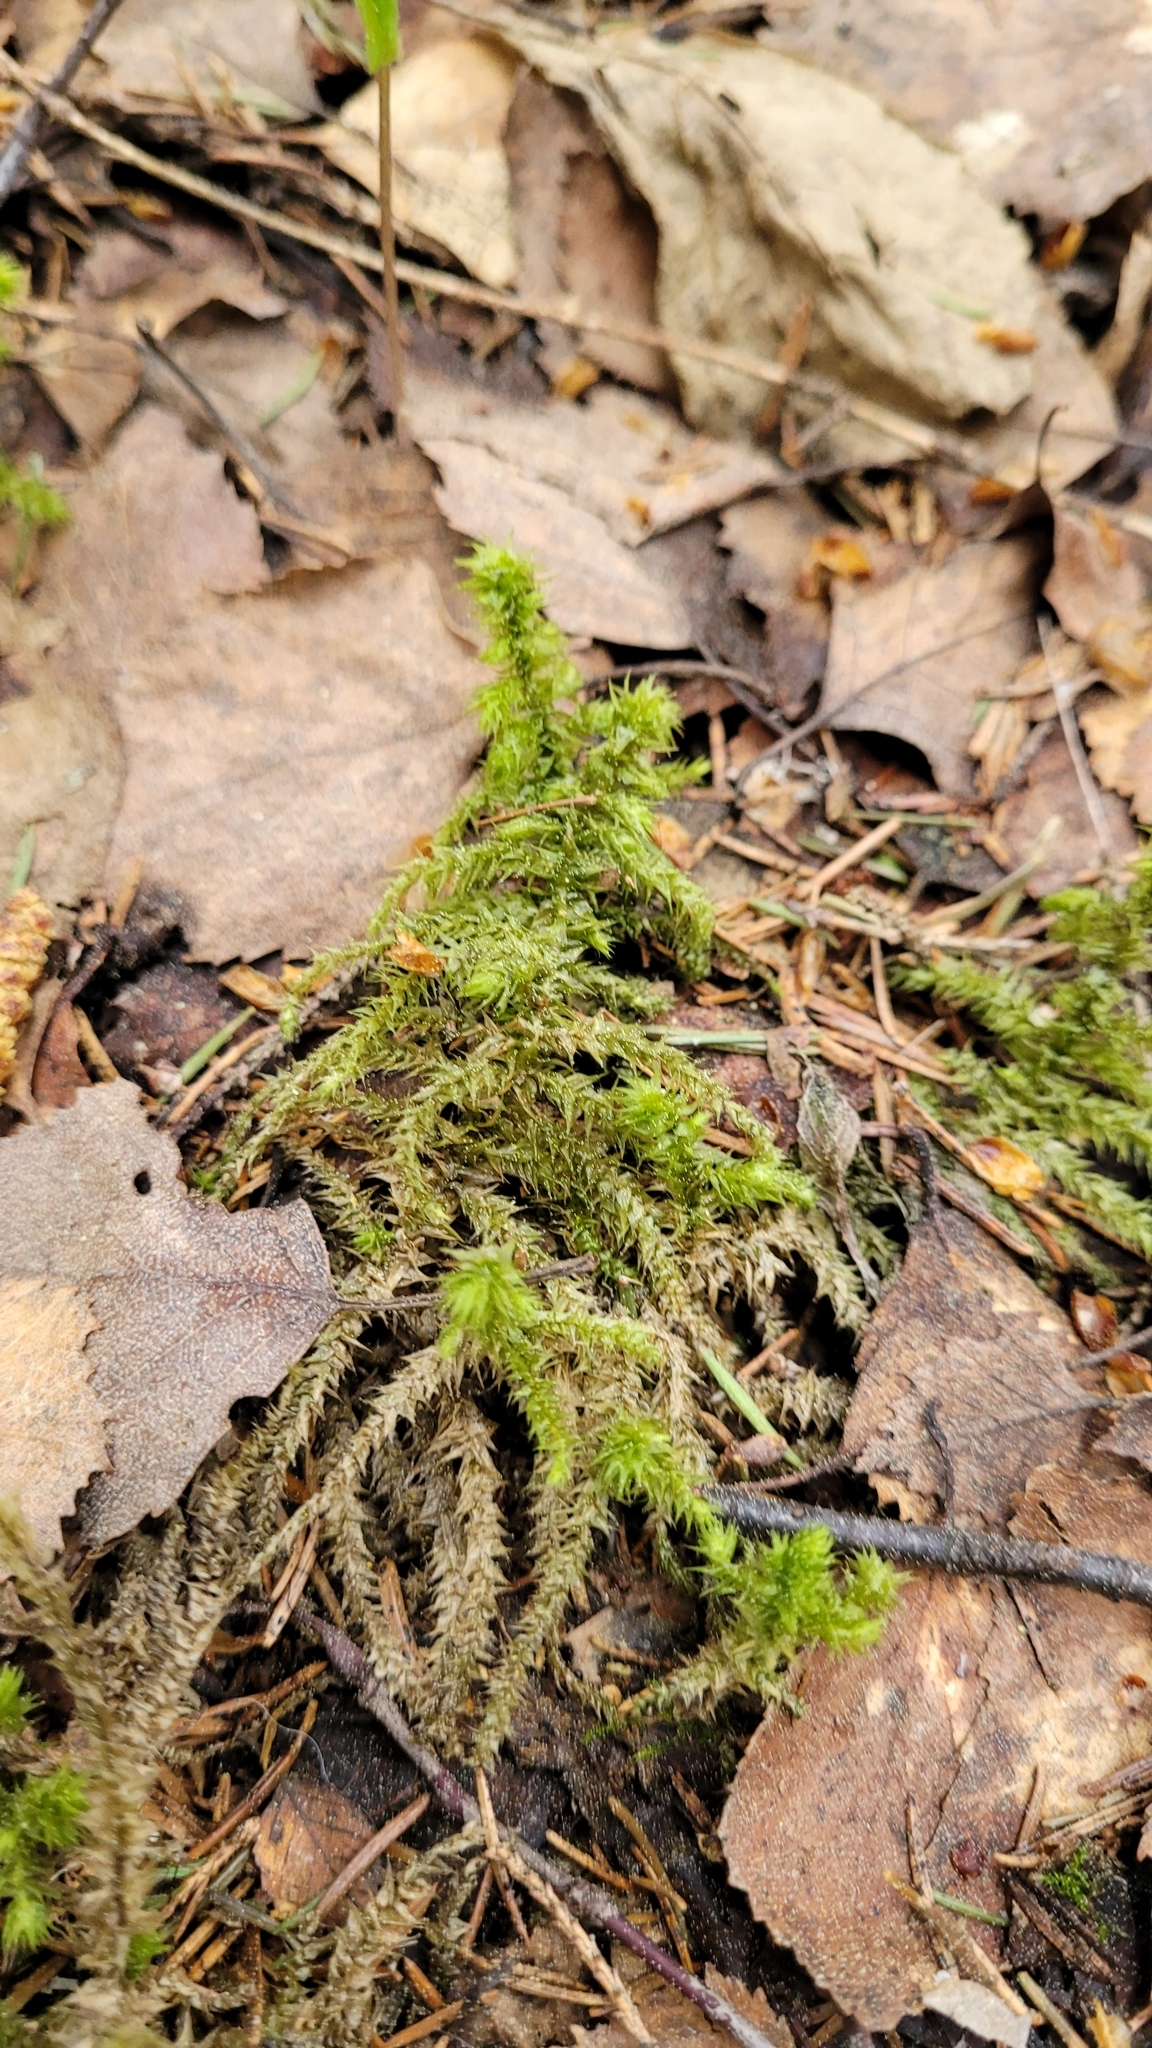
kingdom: Plantae
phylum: Bryophyta
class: Bryopsida
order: Hypnales
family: Hylocomiaceae
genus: Hylocomiadelphus
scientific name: Hylocomiadelphus triquetrus
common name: Rough goose neck moss
